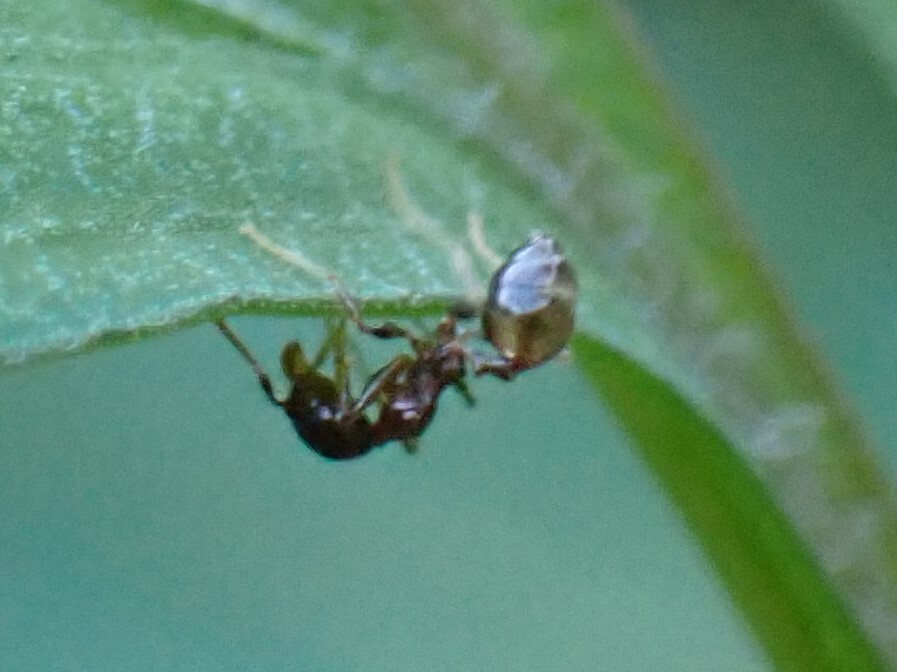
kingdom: Animalia
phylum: Arthropoda
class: Insecta
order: Hymenoptera
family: Formicidae
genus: Pheidole
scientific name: Pheidole megacephala
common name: Bigheaded ant
